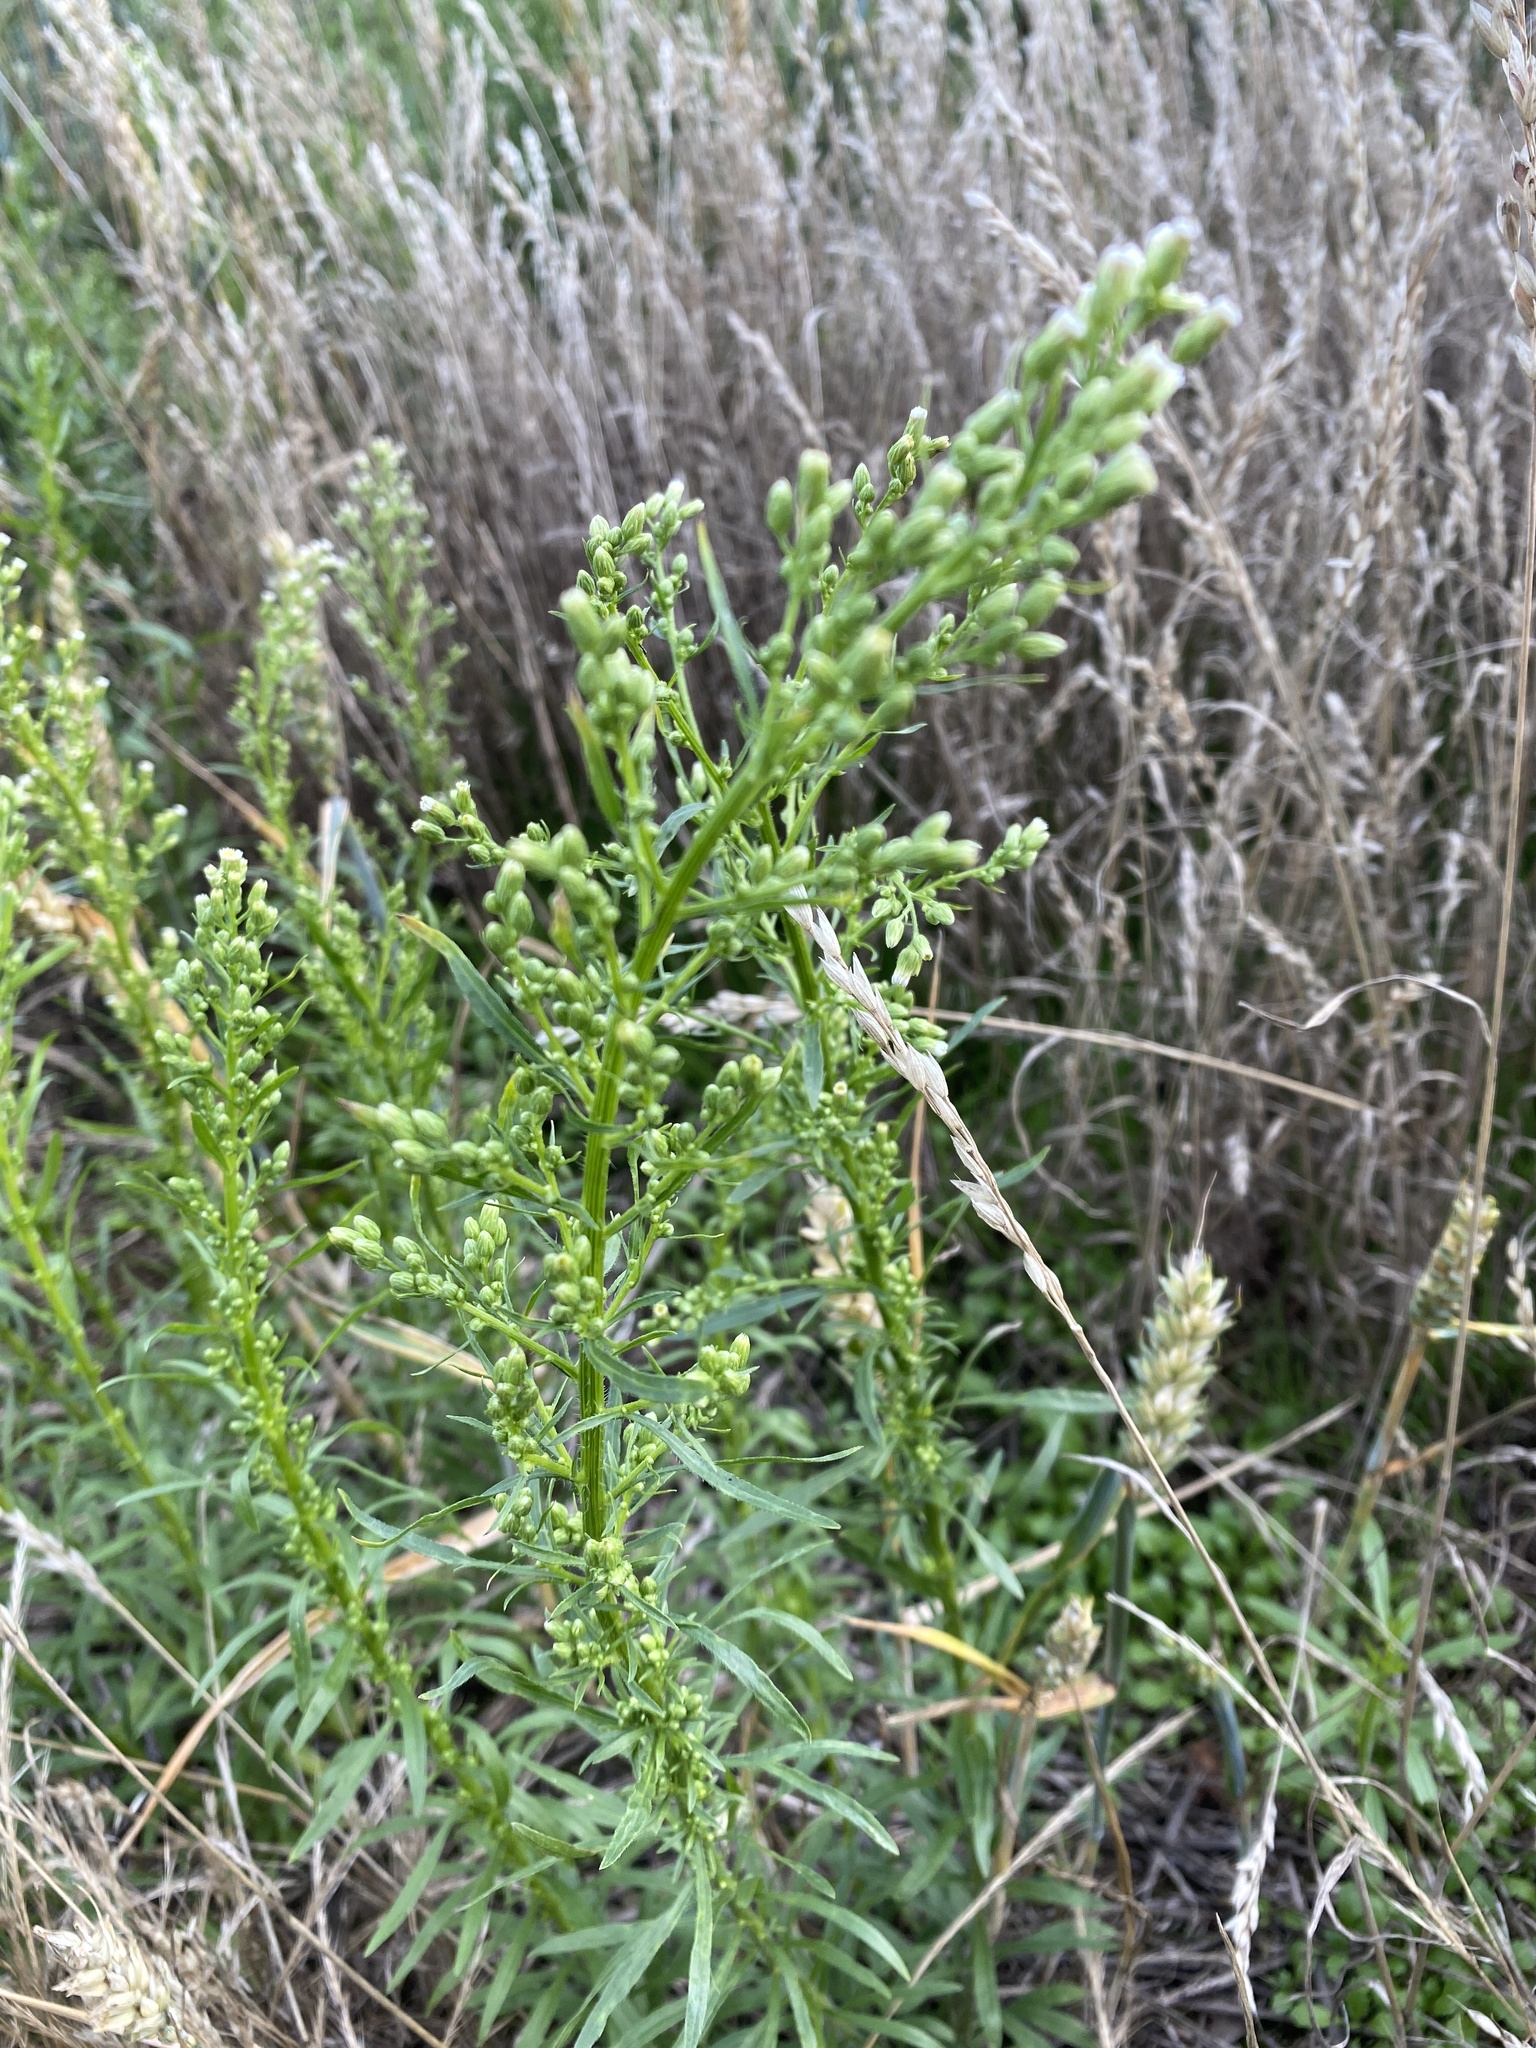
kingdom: Plantae
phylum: Tracheophyta
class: Magnoliopsida
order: Asterales
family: Asteraceae
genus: Erigeron
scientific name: Erigeron canadensis
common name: Canadian fleabane
